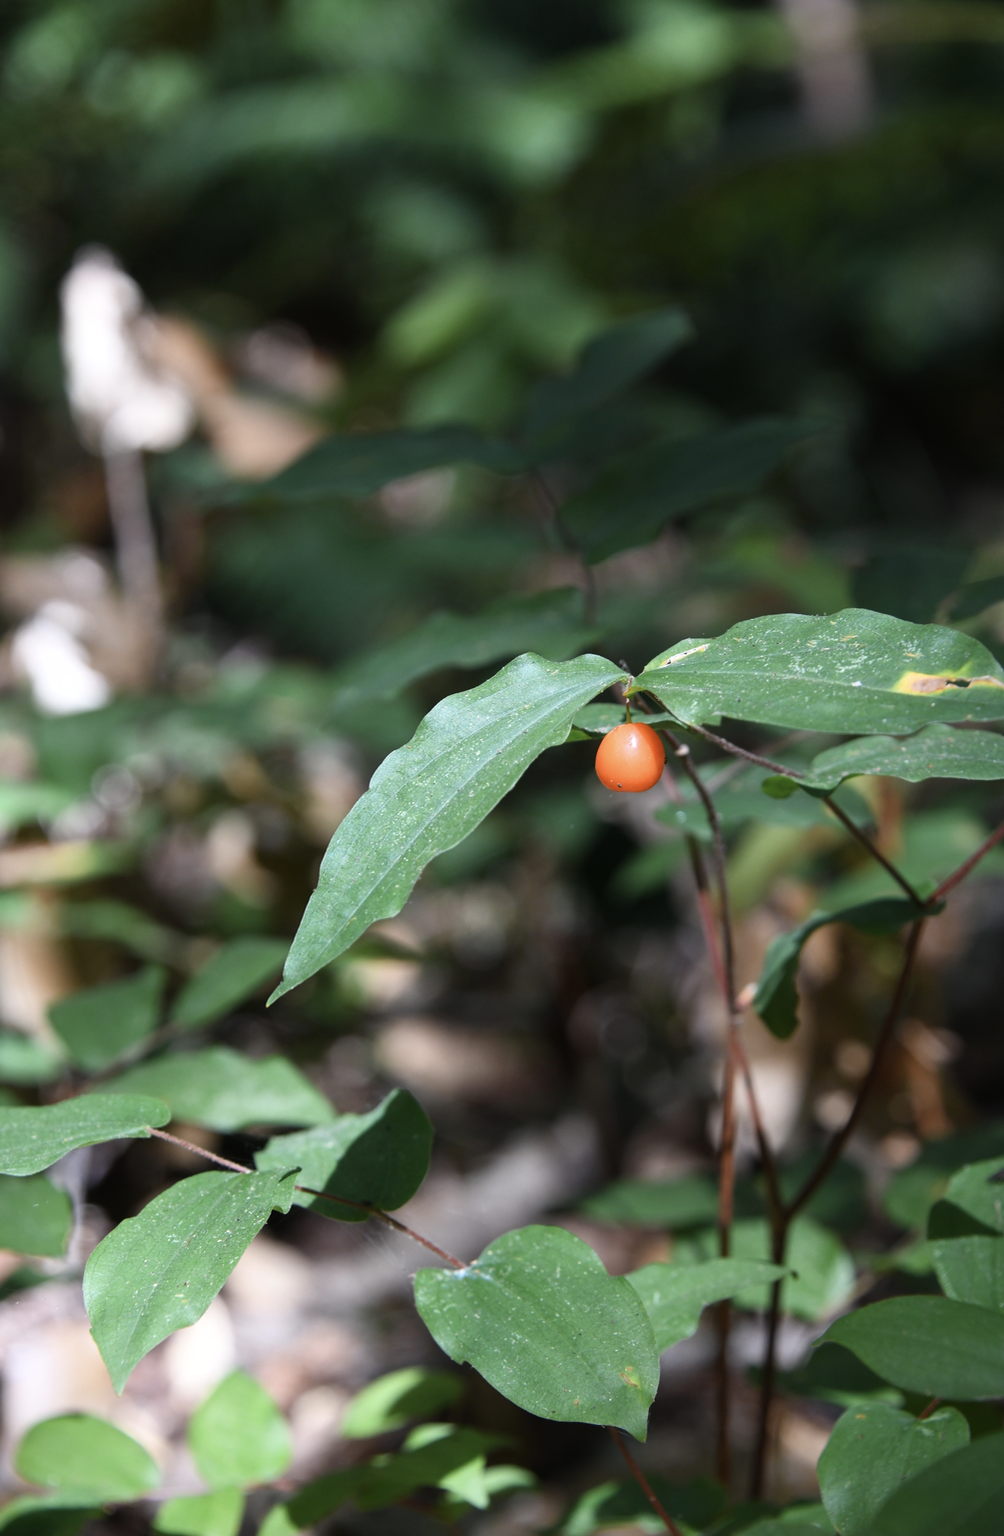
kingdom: Plantae
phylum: Tracheophyta
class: Liliopsida
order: Liliales
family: Liliaceae
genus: Prosartes
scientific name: Prosartes hookeri
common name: Fairy-bells
